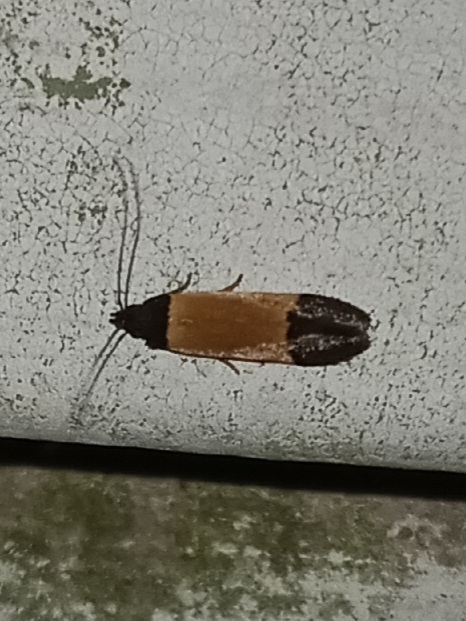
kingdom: Animalia
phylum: Arthropoda
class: Insecta
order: Lepidoptera
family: Gelechiidae
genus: Anacampsis
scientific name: Anacampsis coverdalella
